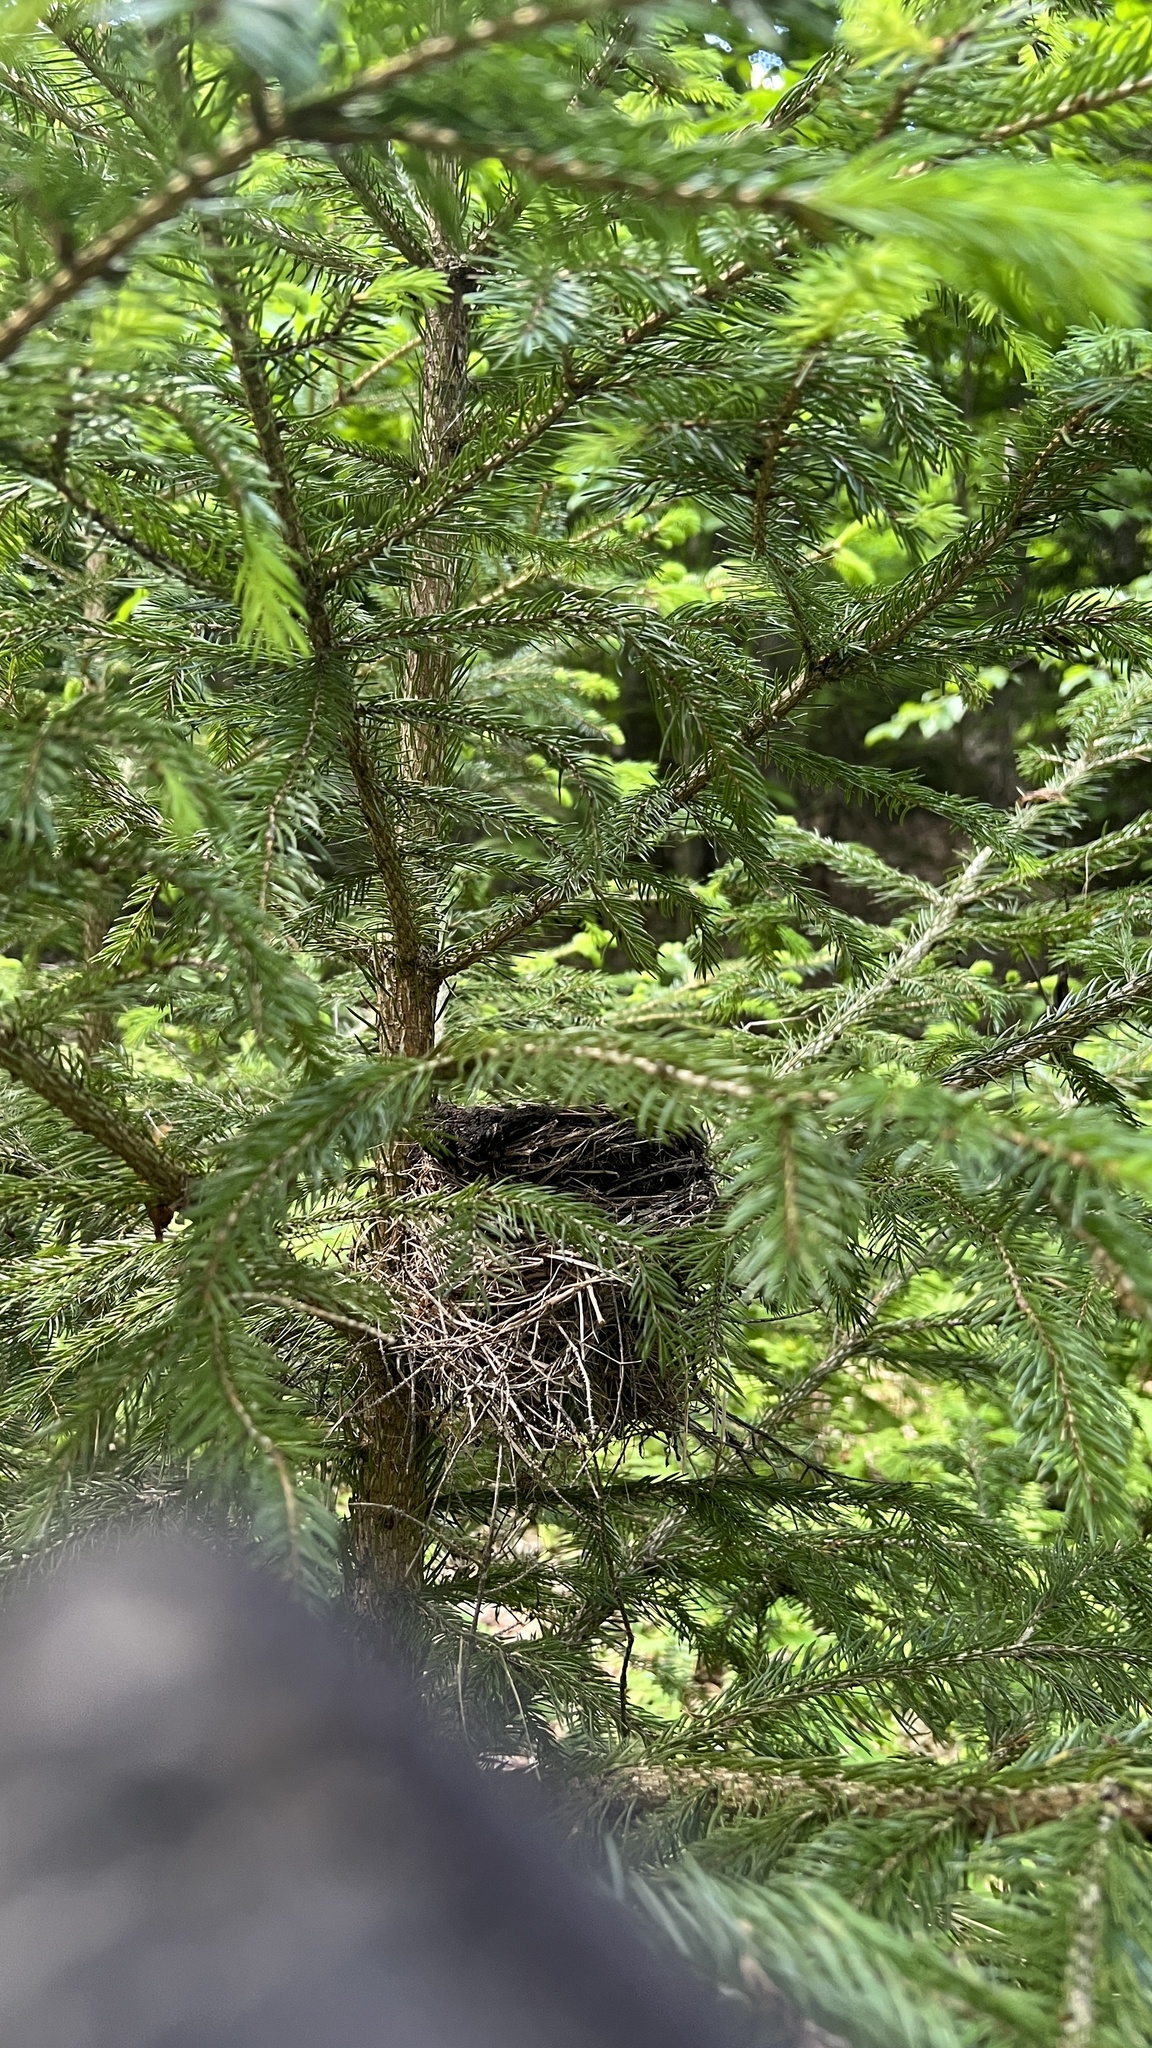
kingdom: Animalia
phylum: Chordata
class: Aves
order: Passeriformes
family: Turdidae
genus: Turdus
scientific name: Turdus migratorius
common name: American robin
